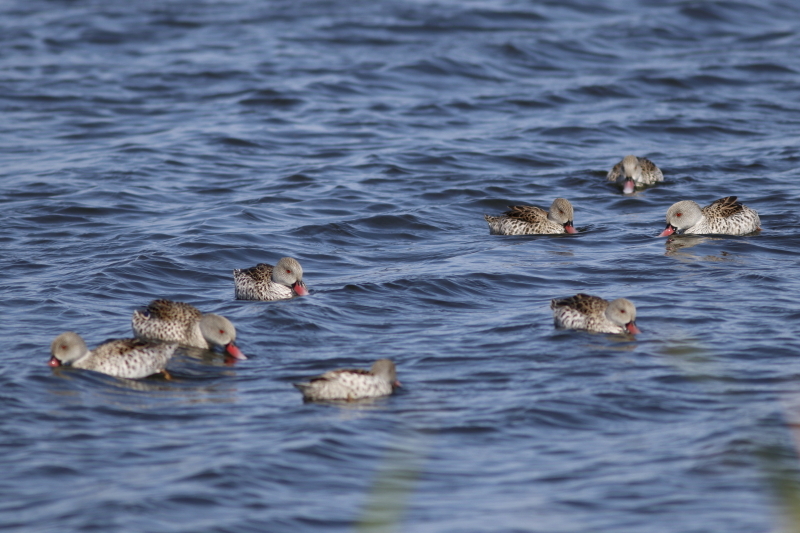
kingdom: Animalia
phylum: Chordata
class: Aves
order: Anseriformes
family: Anatidae
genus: Anas
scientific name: Anas capensis
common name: Cape teal
